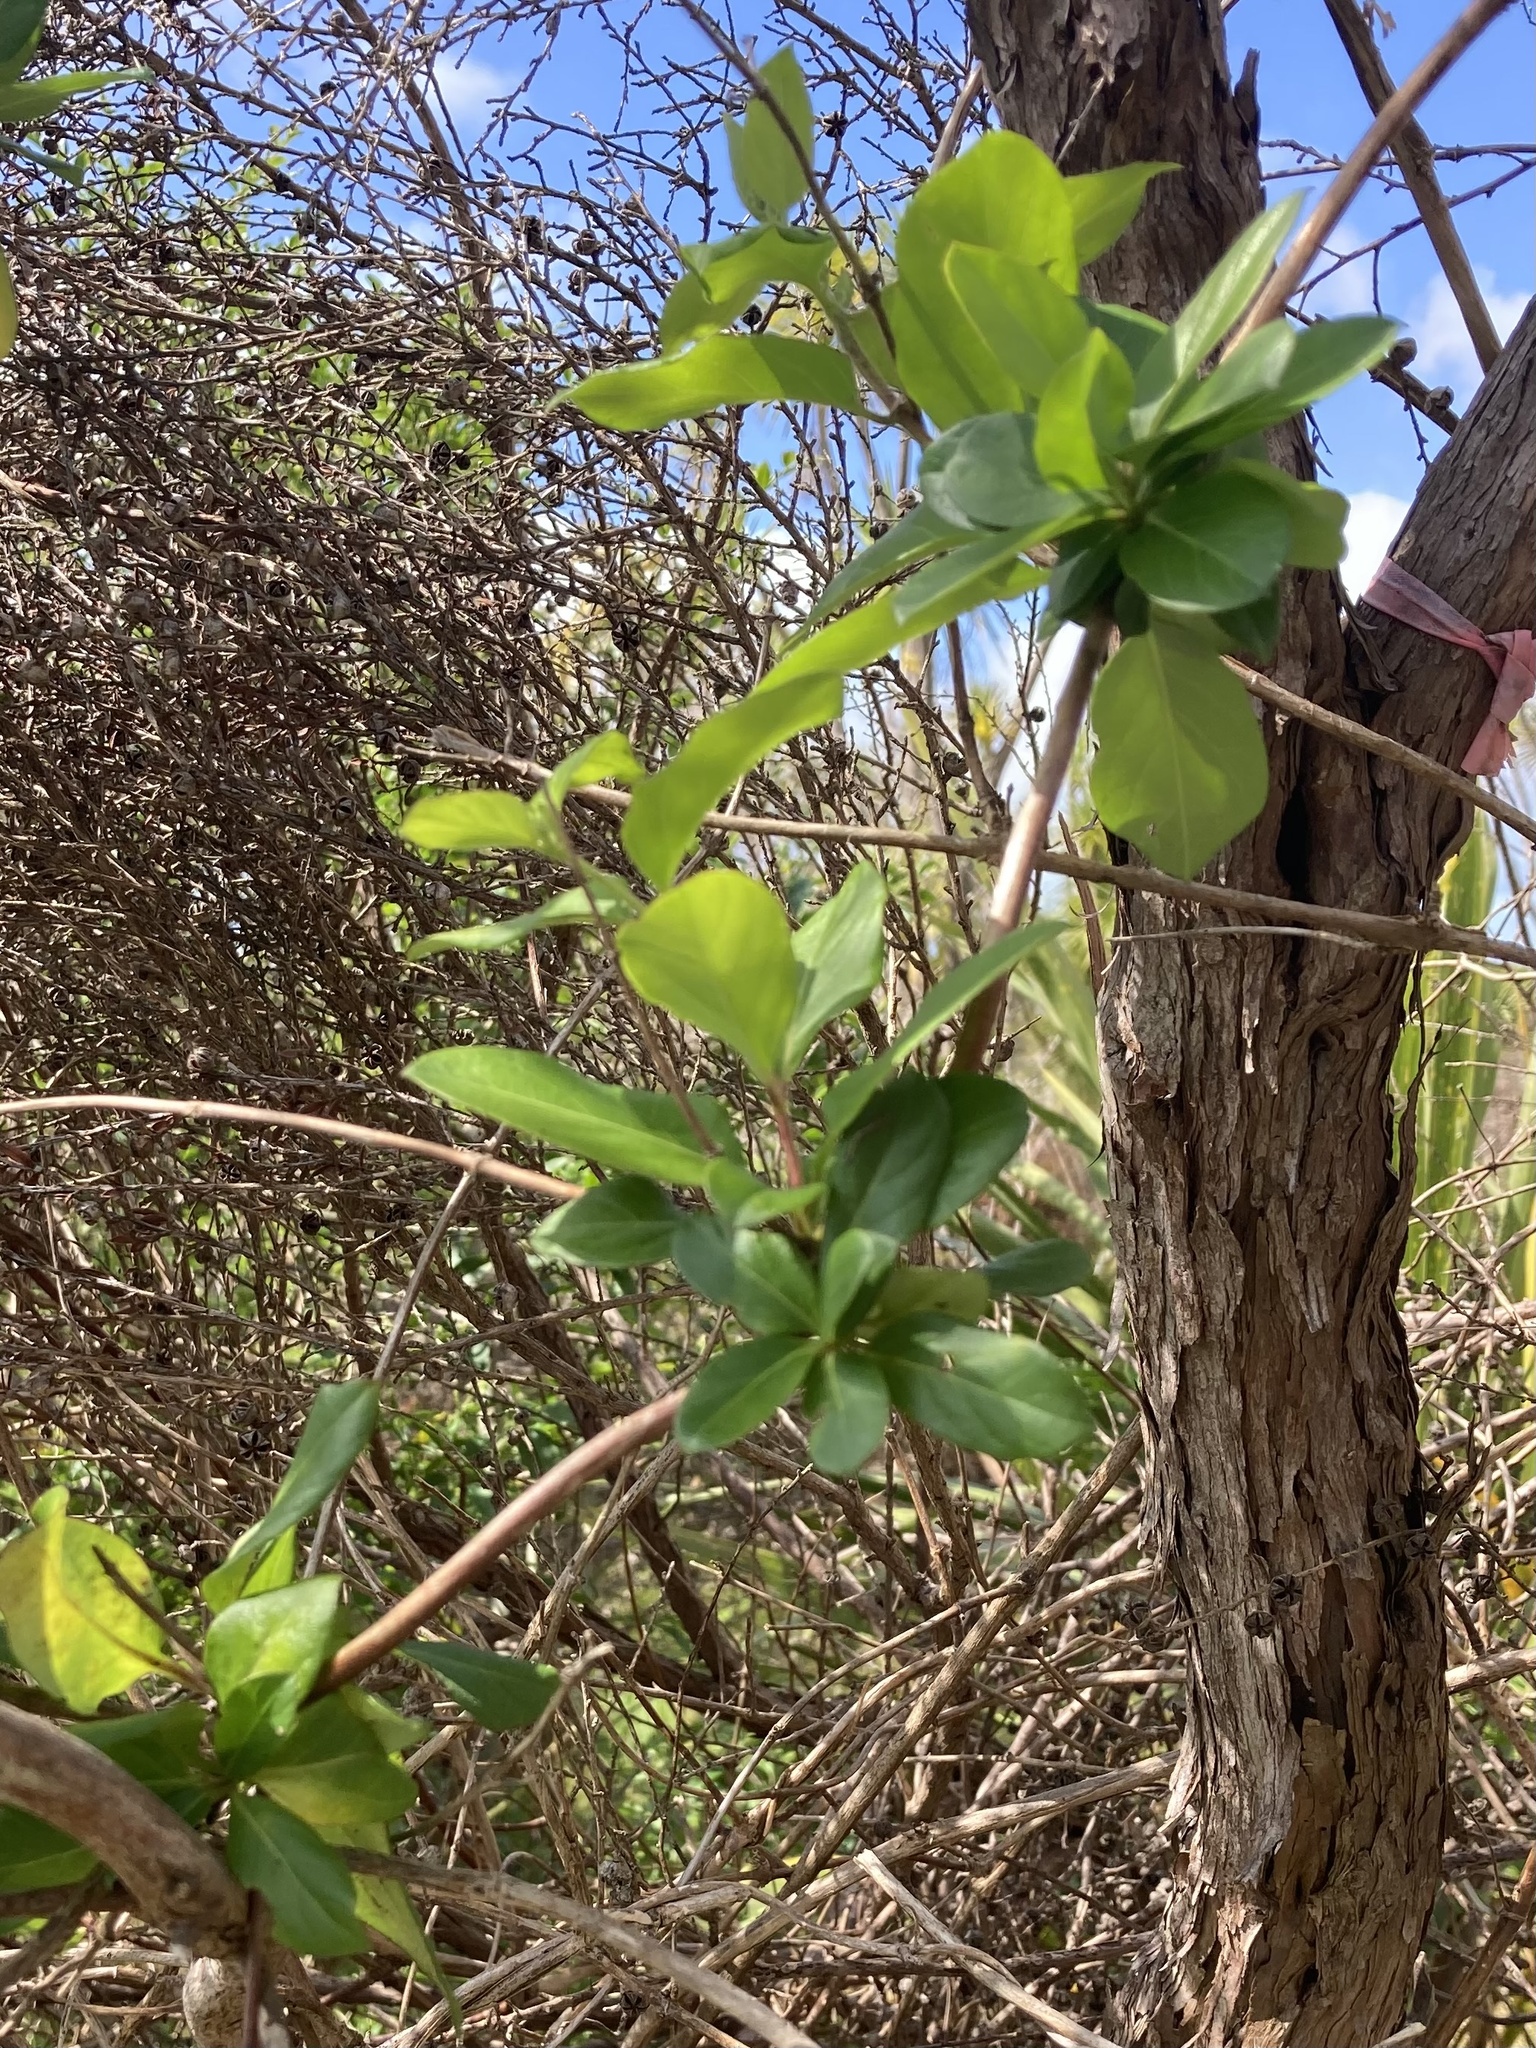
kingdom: Plantae
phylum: Tracheophyta
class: Magnoliopsida
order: Dipsacales
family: Caprifoliaceae
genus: Lonicera
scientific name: Lonicera japonica
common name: Japanese honeysuckle
